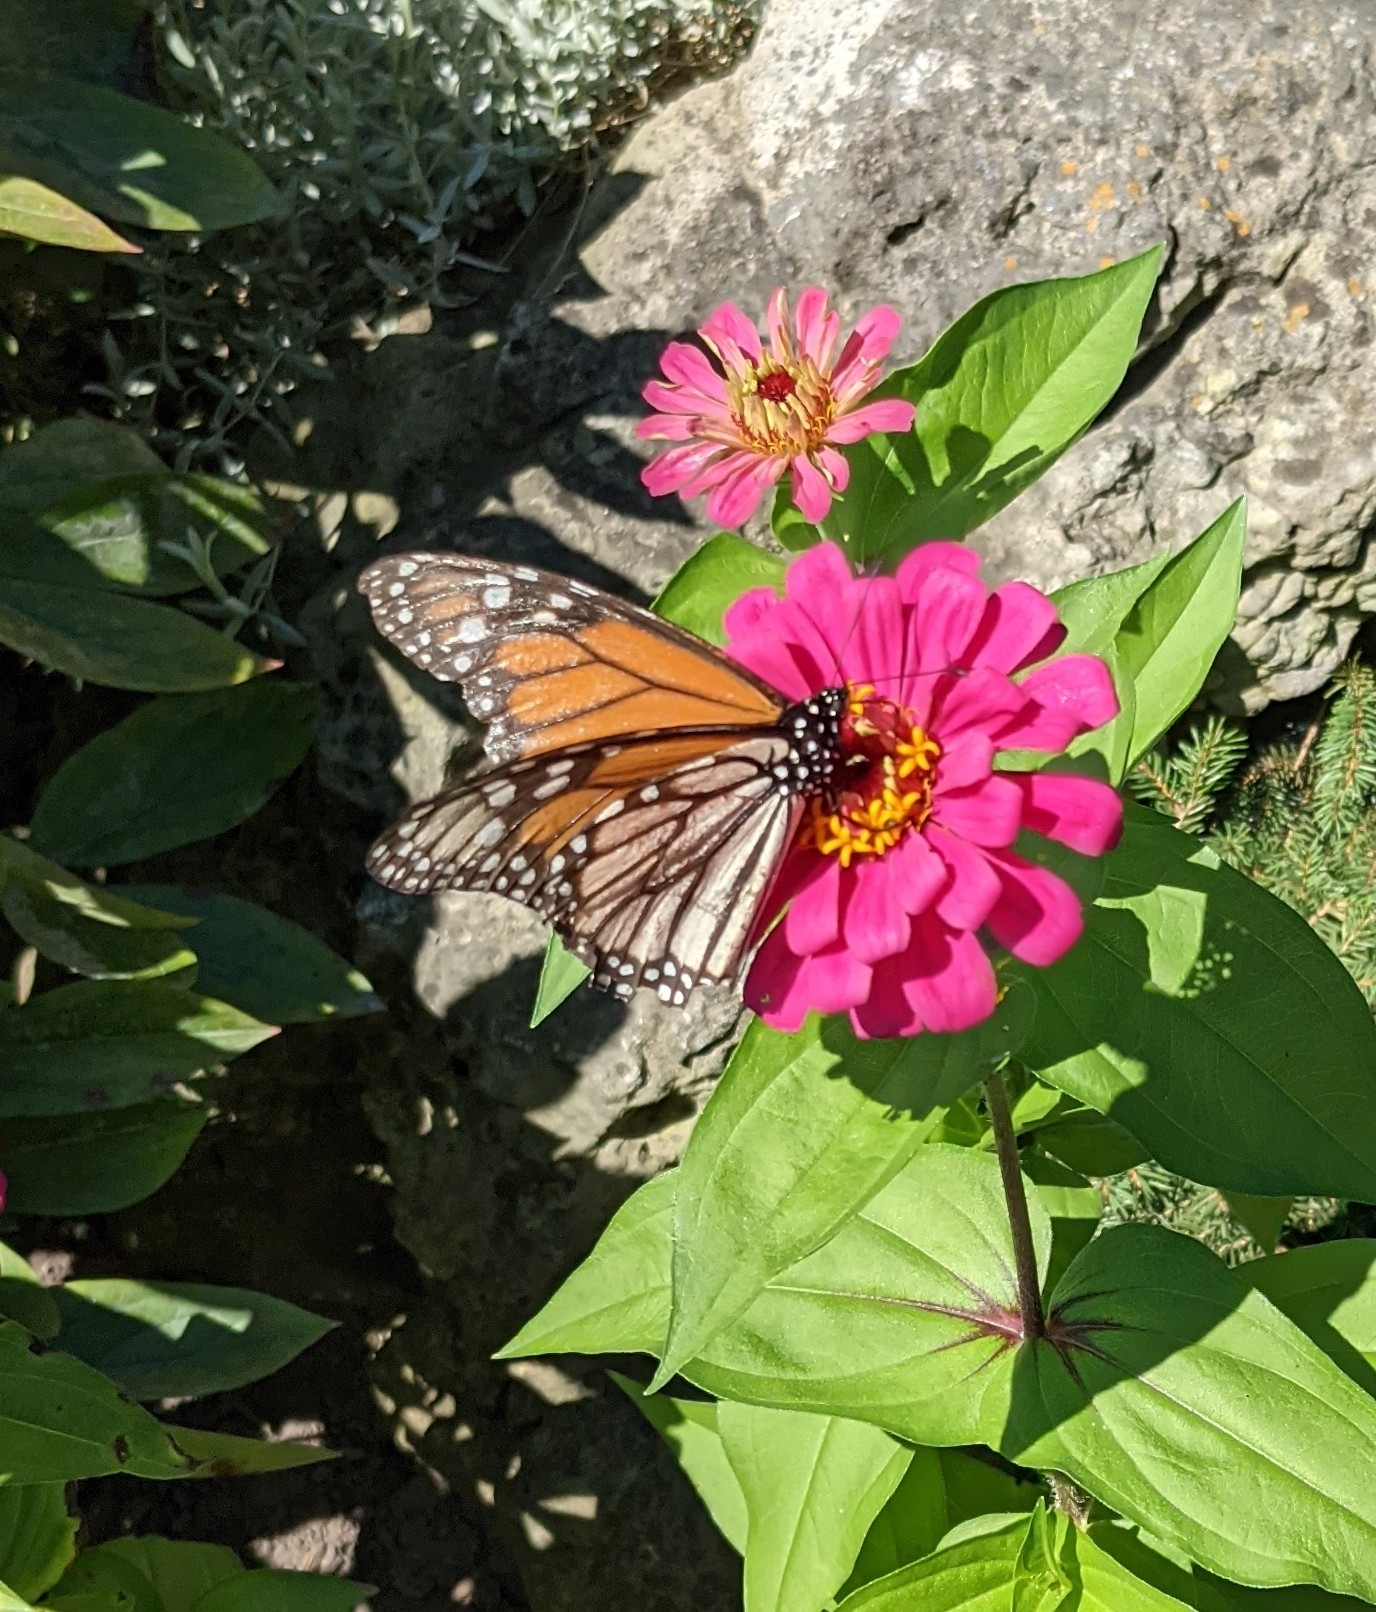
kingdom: Animalia
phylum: Arthropoda
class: Insecta
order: Lepidoptera
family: Nymphalidae
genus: Danaus
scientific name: Danaus plexippus
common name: Monarch
